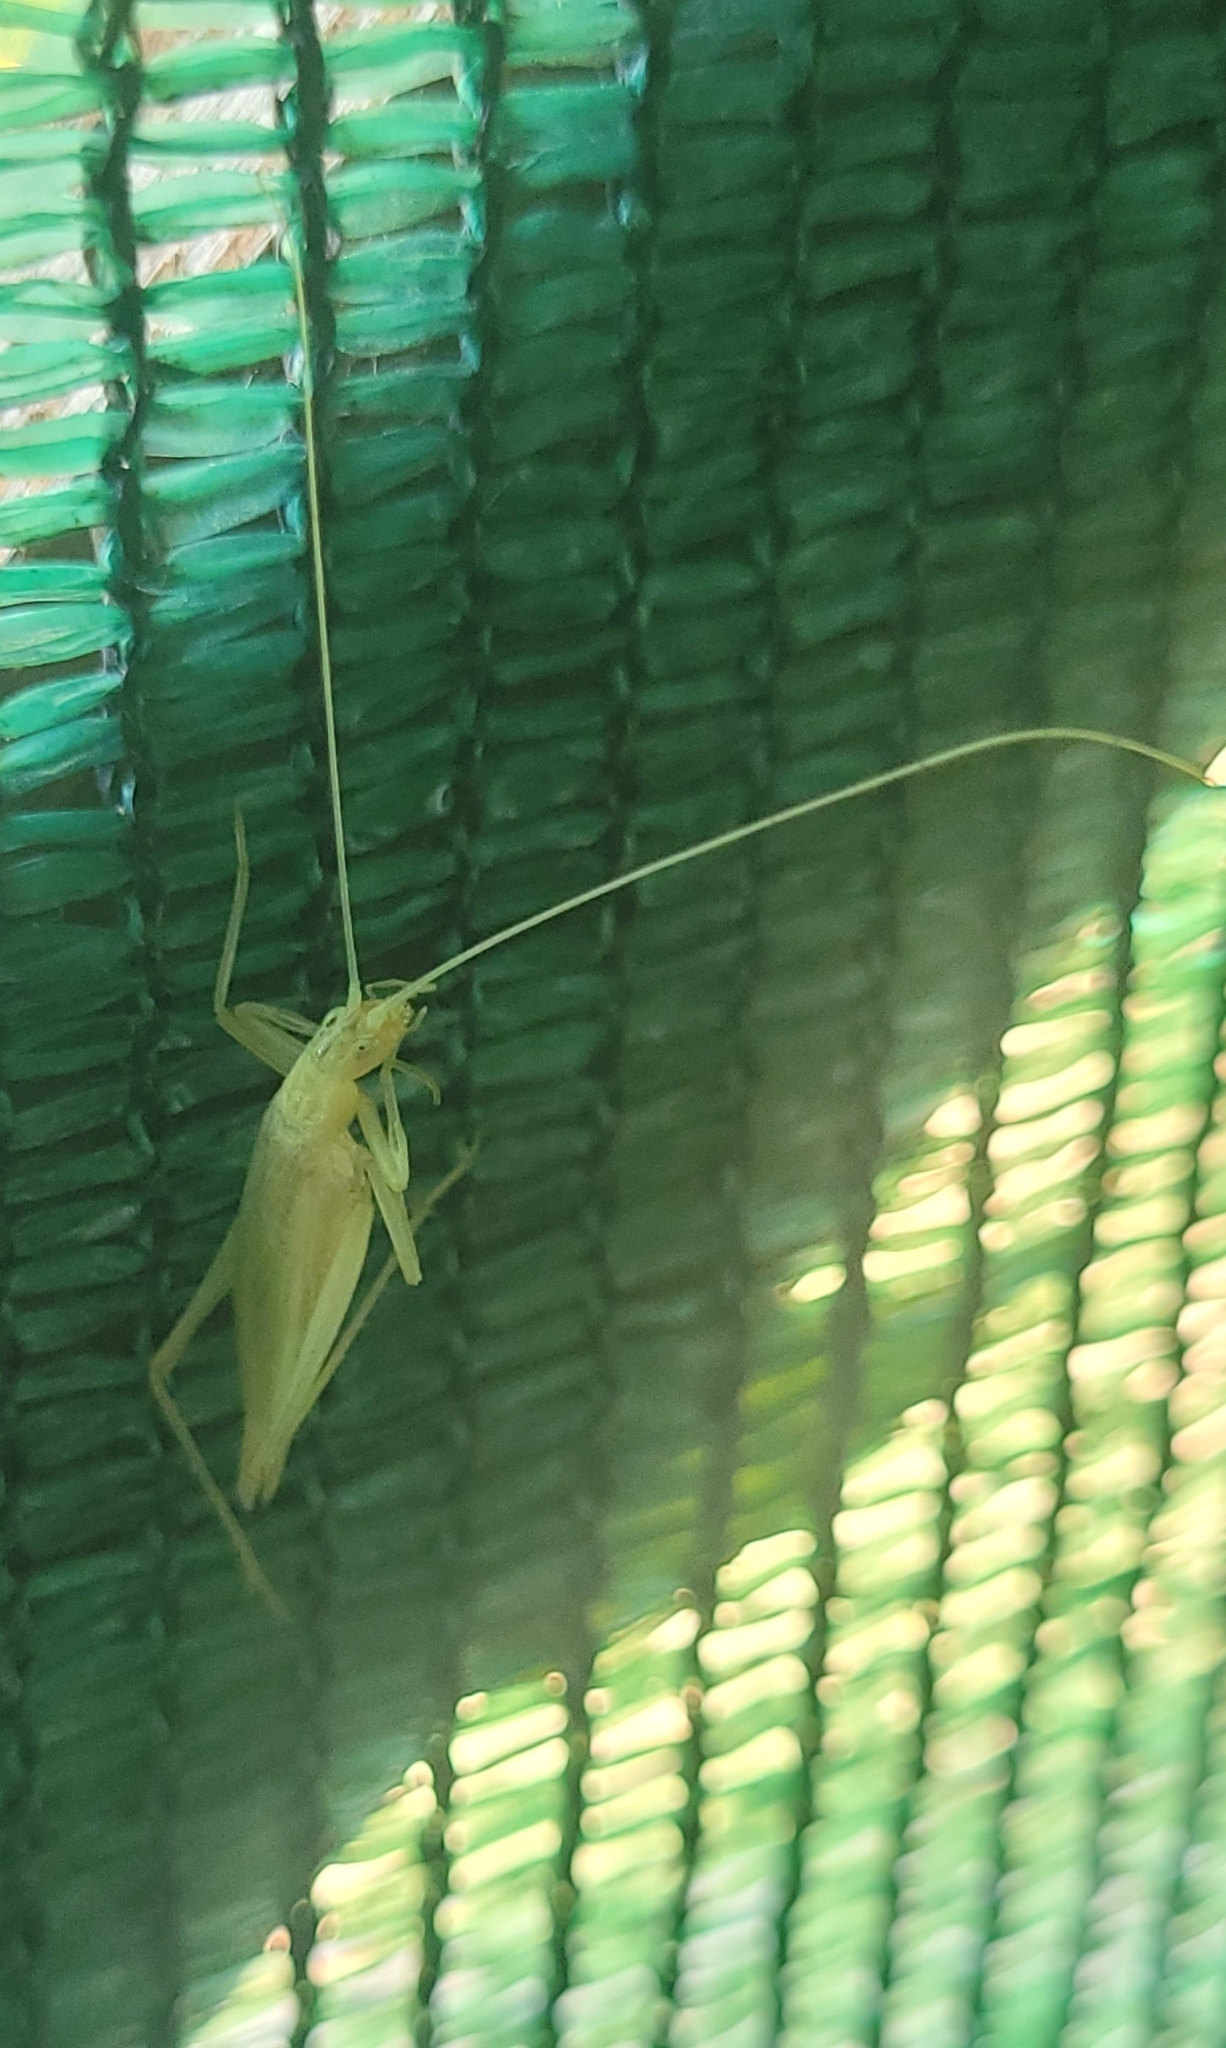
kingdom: Animalia
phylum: Arthropoda
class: Insecta
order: Orthoptera
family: Gryllidae
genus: Oecanthus
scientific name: Oecanthus pellucens
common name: Tree-cricket
